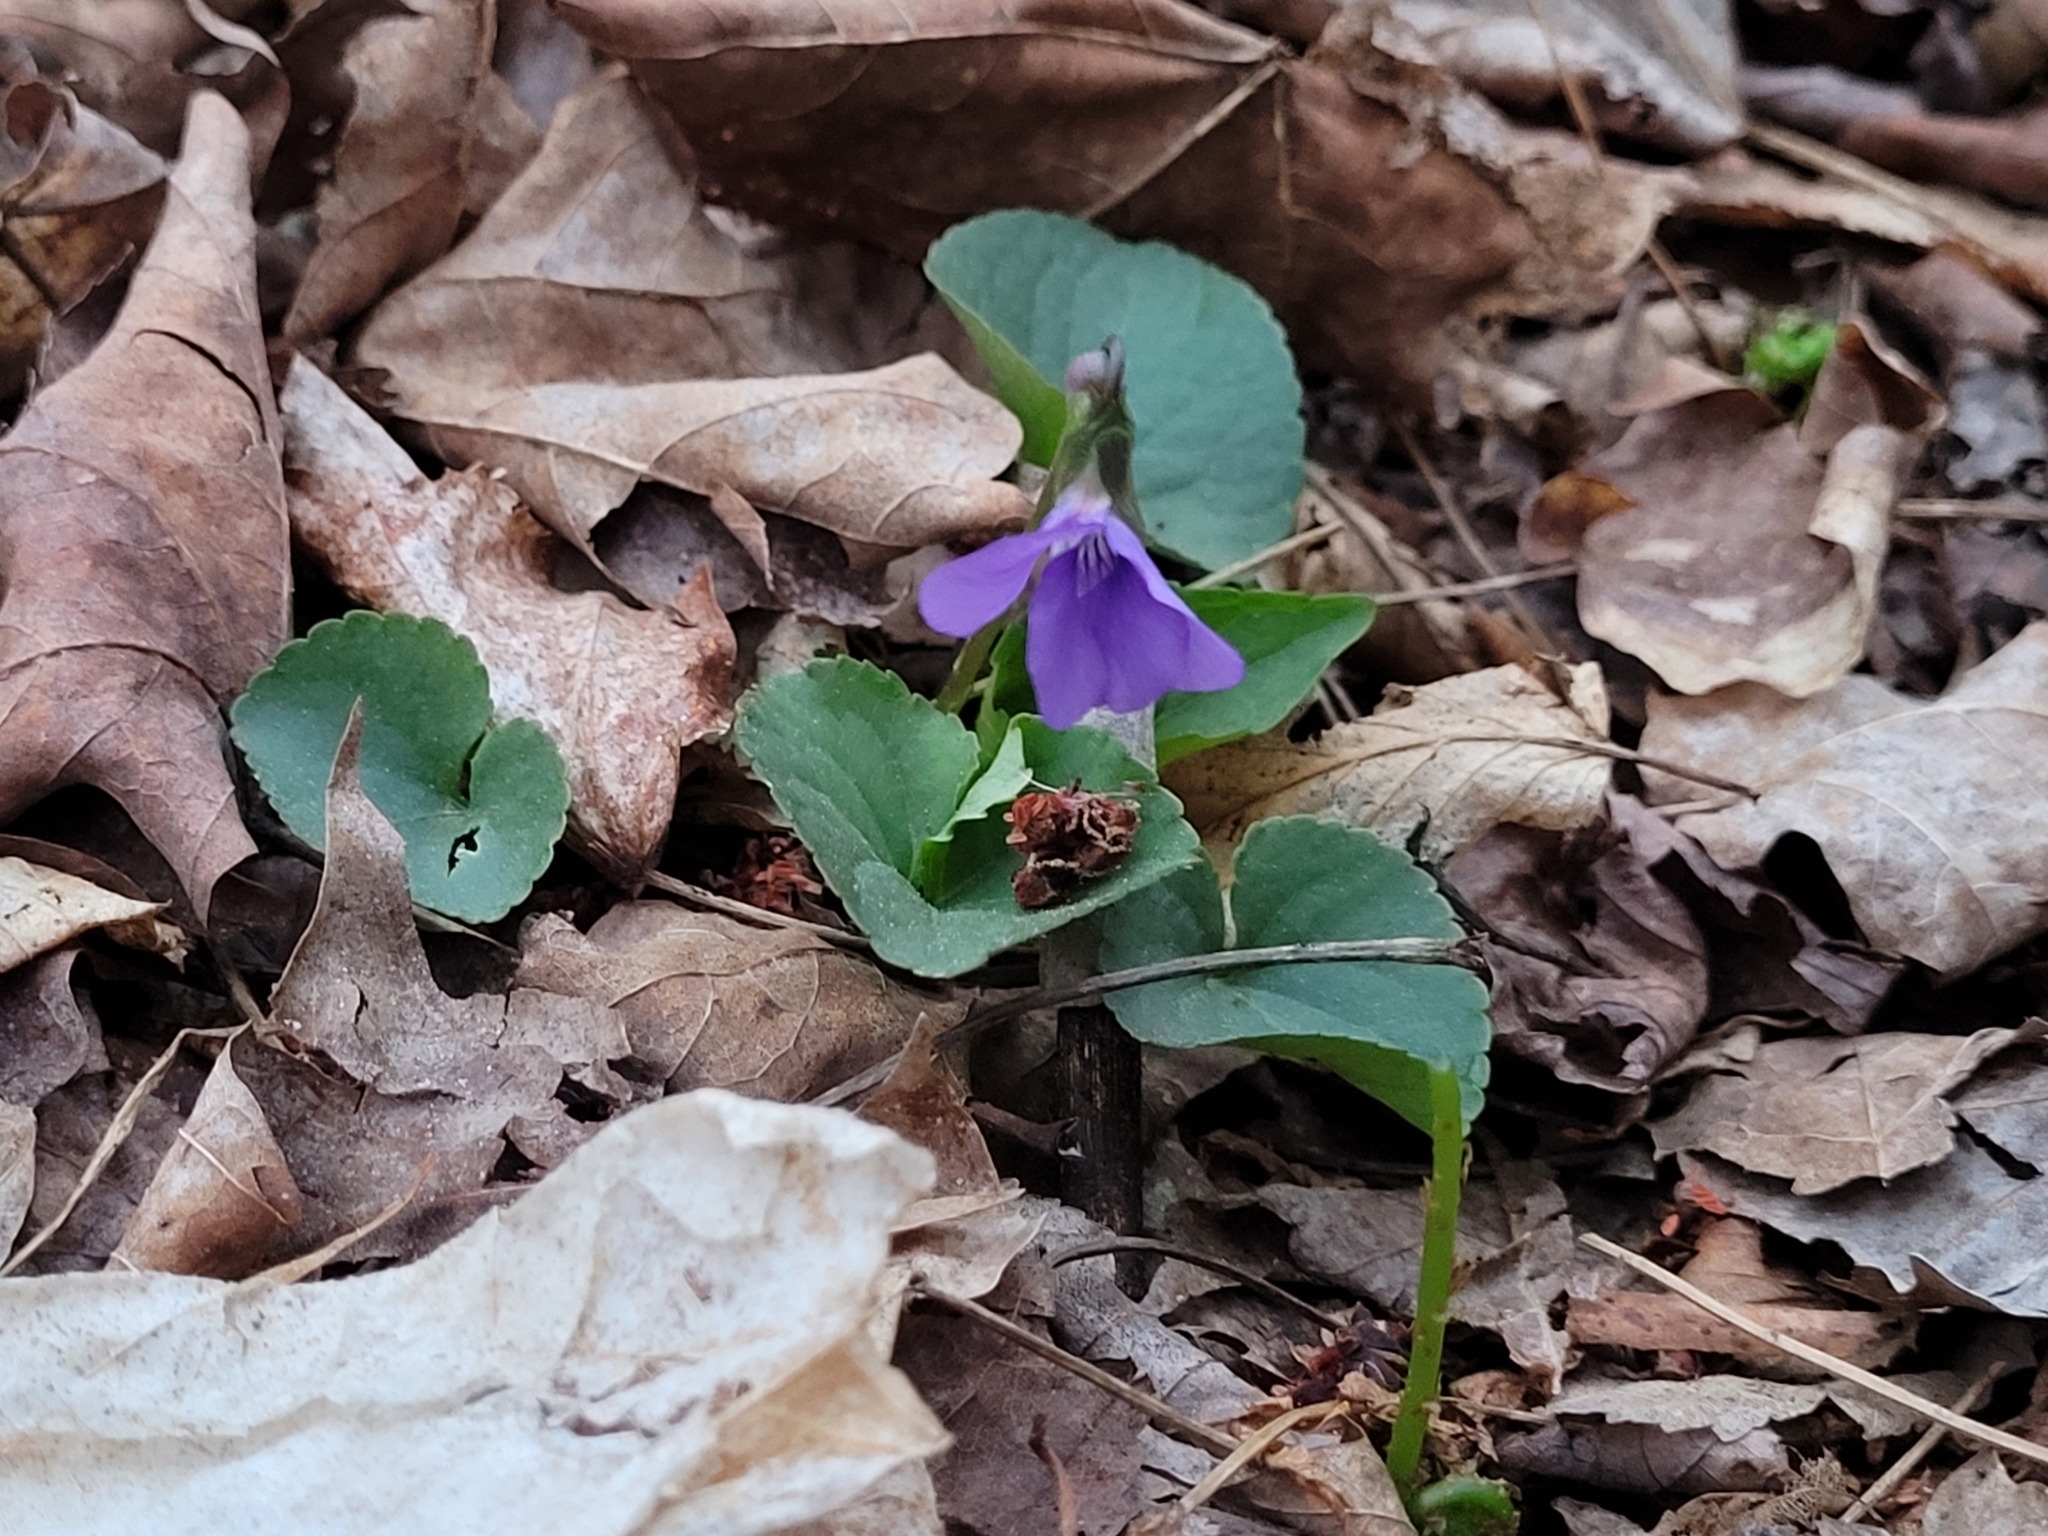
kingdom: Plantae
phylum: Tracheophyta
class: Magnoliopsida
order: Malpighiales
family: Violaceae
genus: Viola
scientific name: Viola sororia
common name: Dooryard violet
